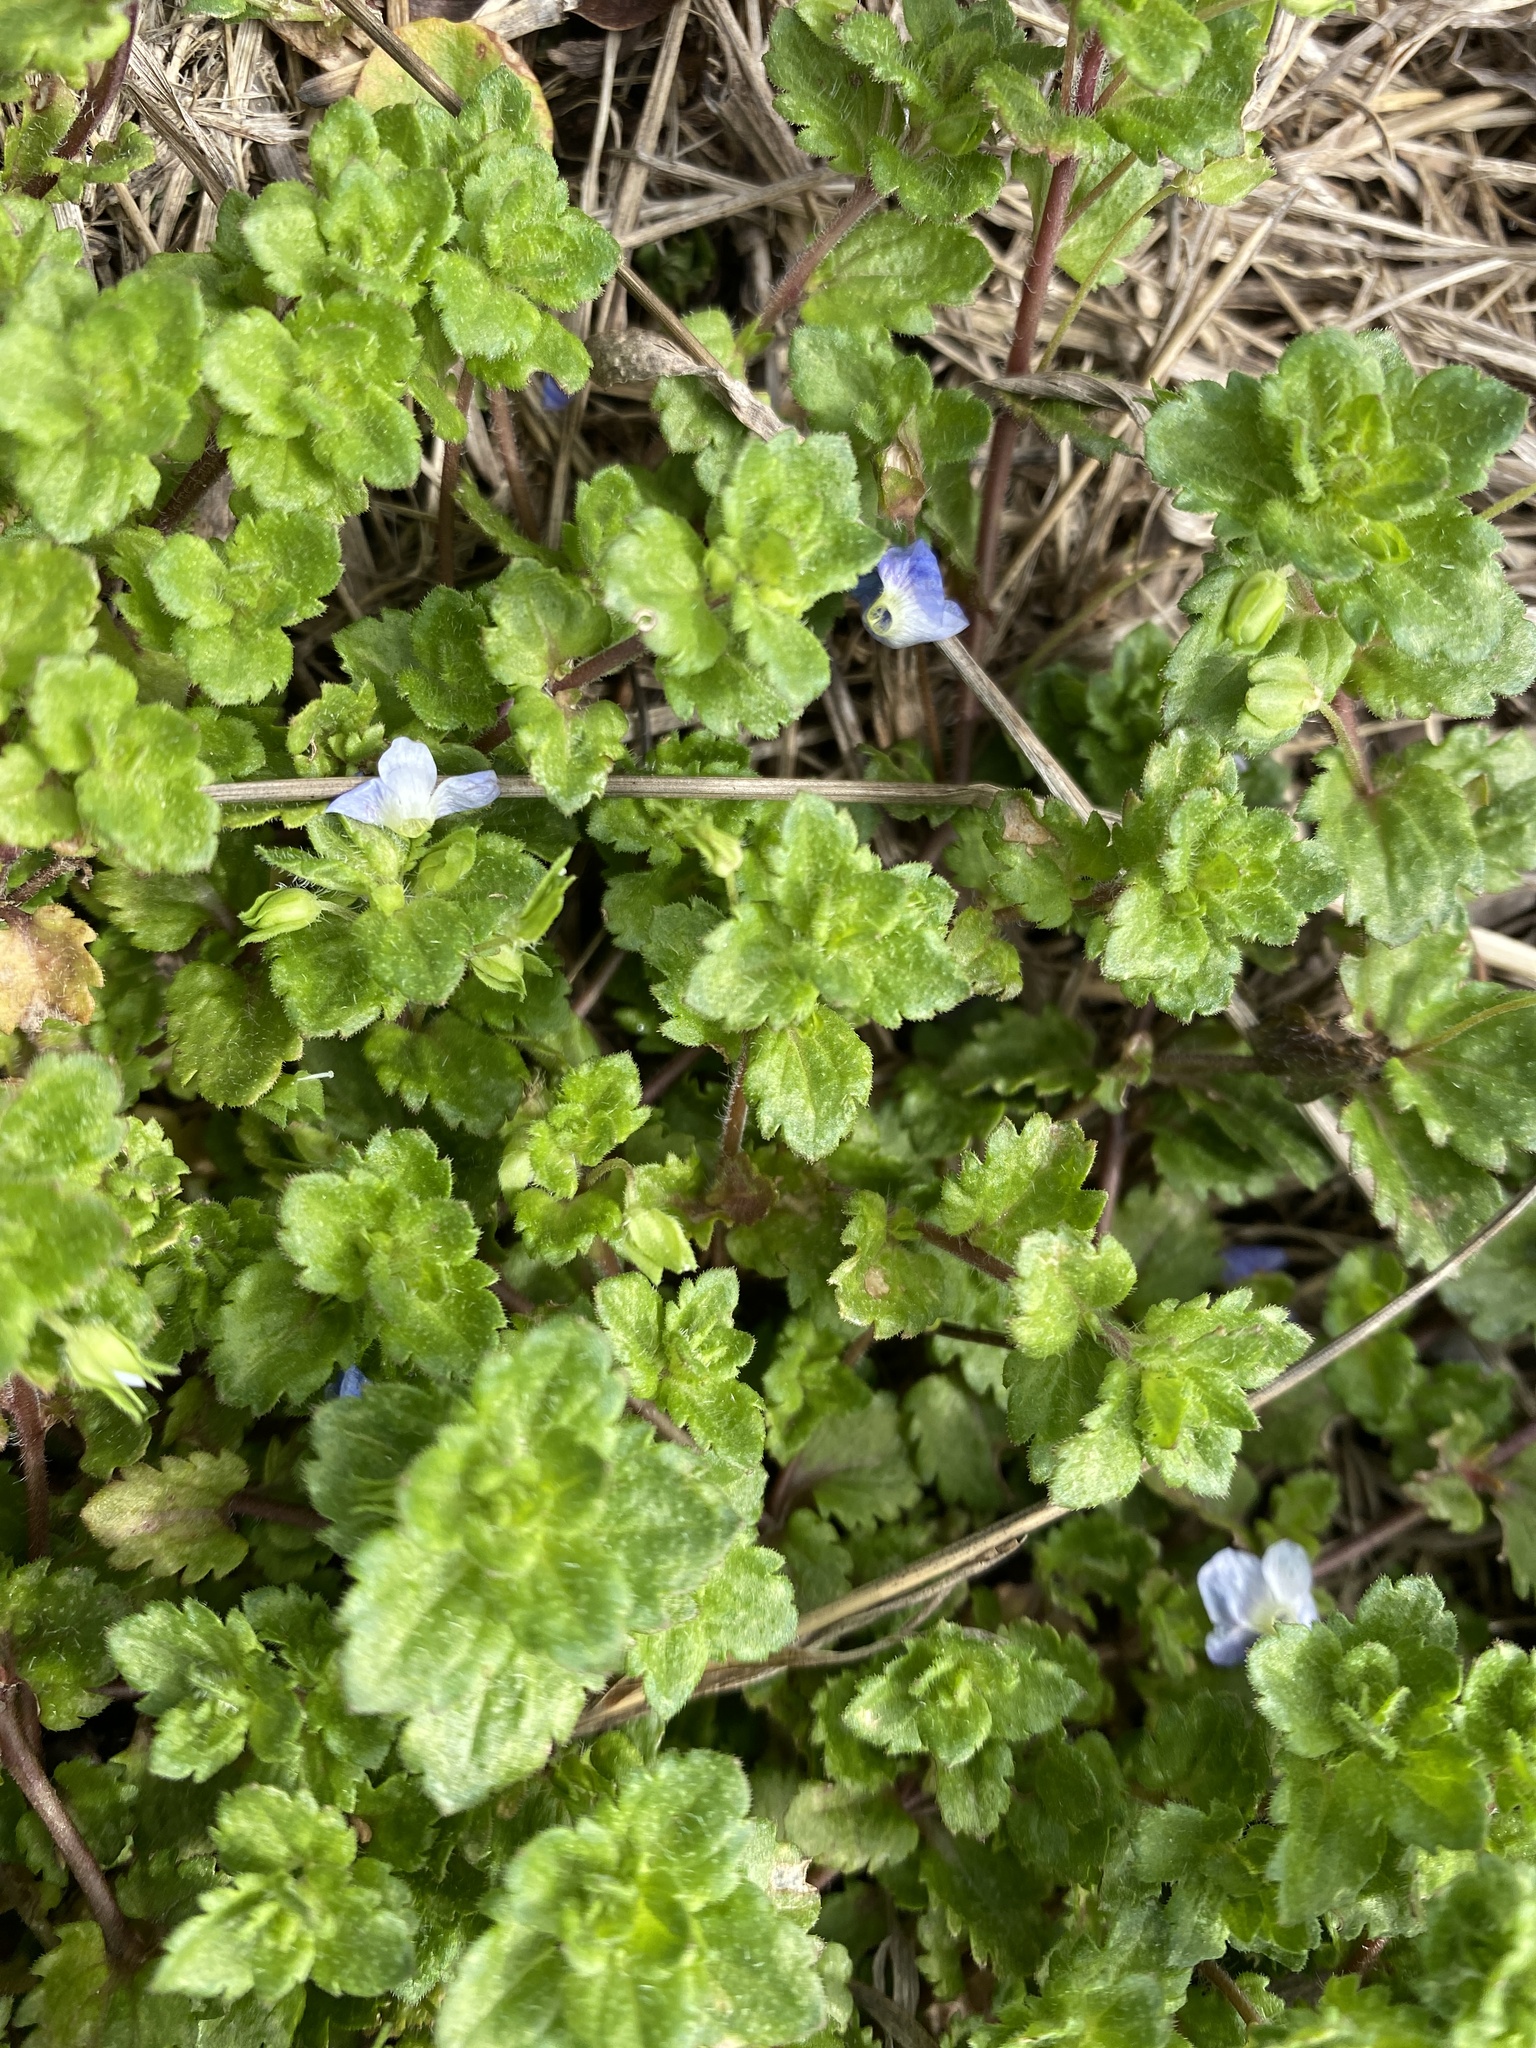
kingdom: Plantae
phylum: Tracheophyta
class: Magnoliopsida
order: Lamiales
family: Plantaginaceae
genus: Veronica
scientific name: Veronica persica
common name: Common field-speedwell
